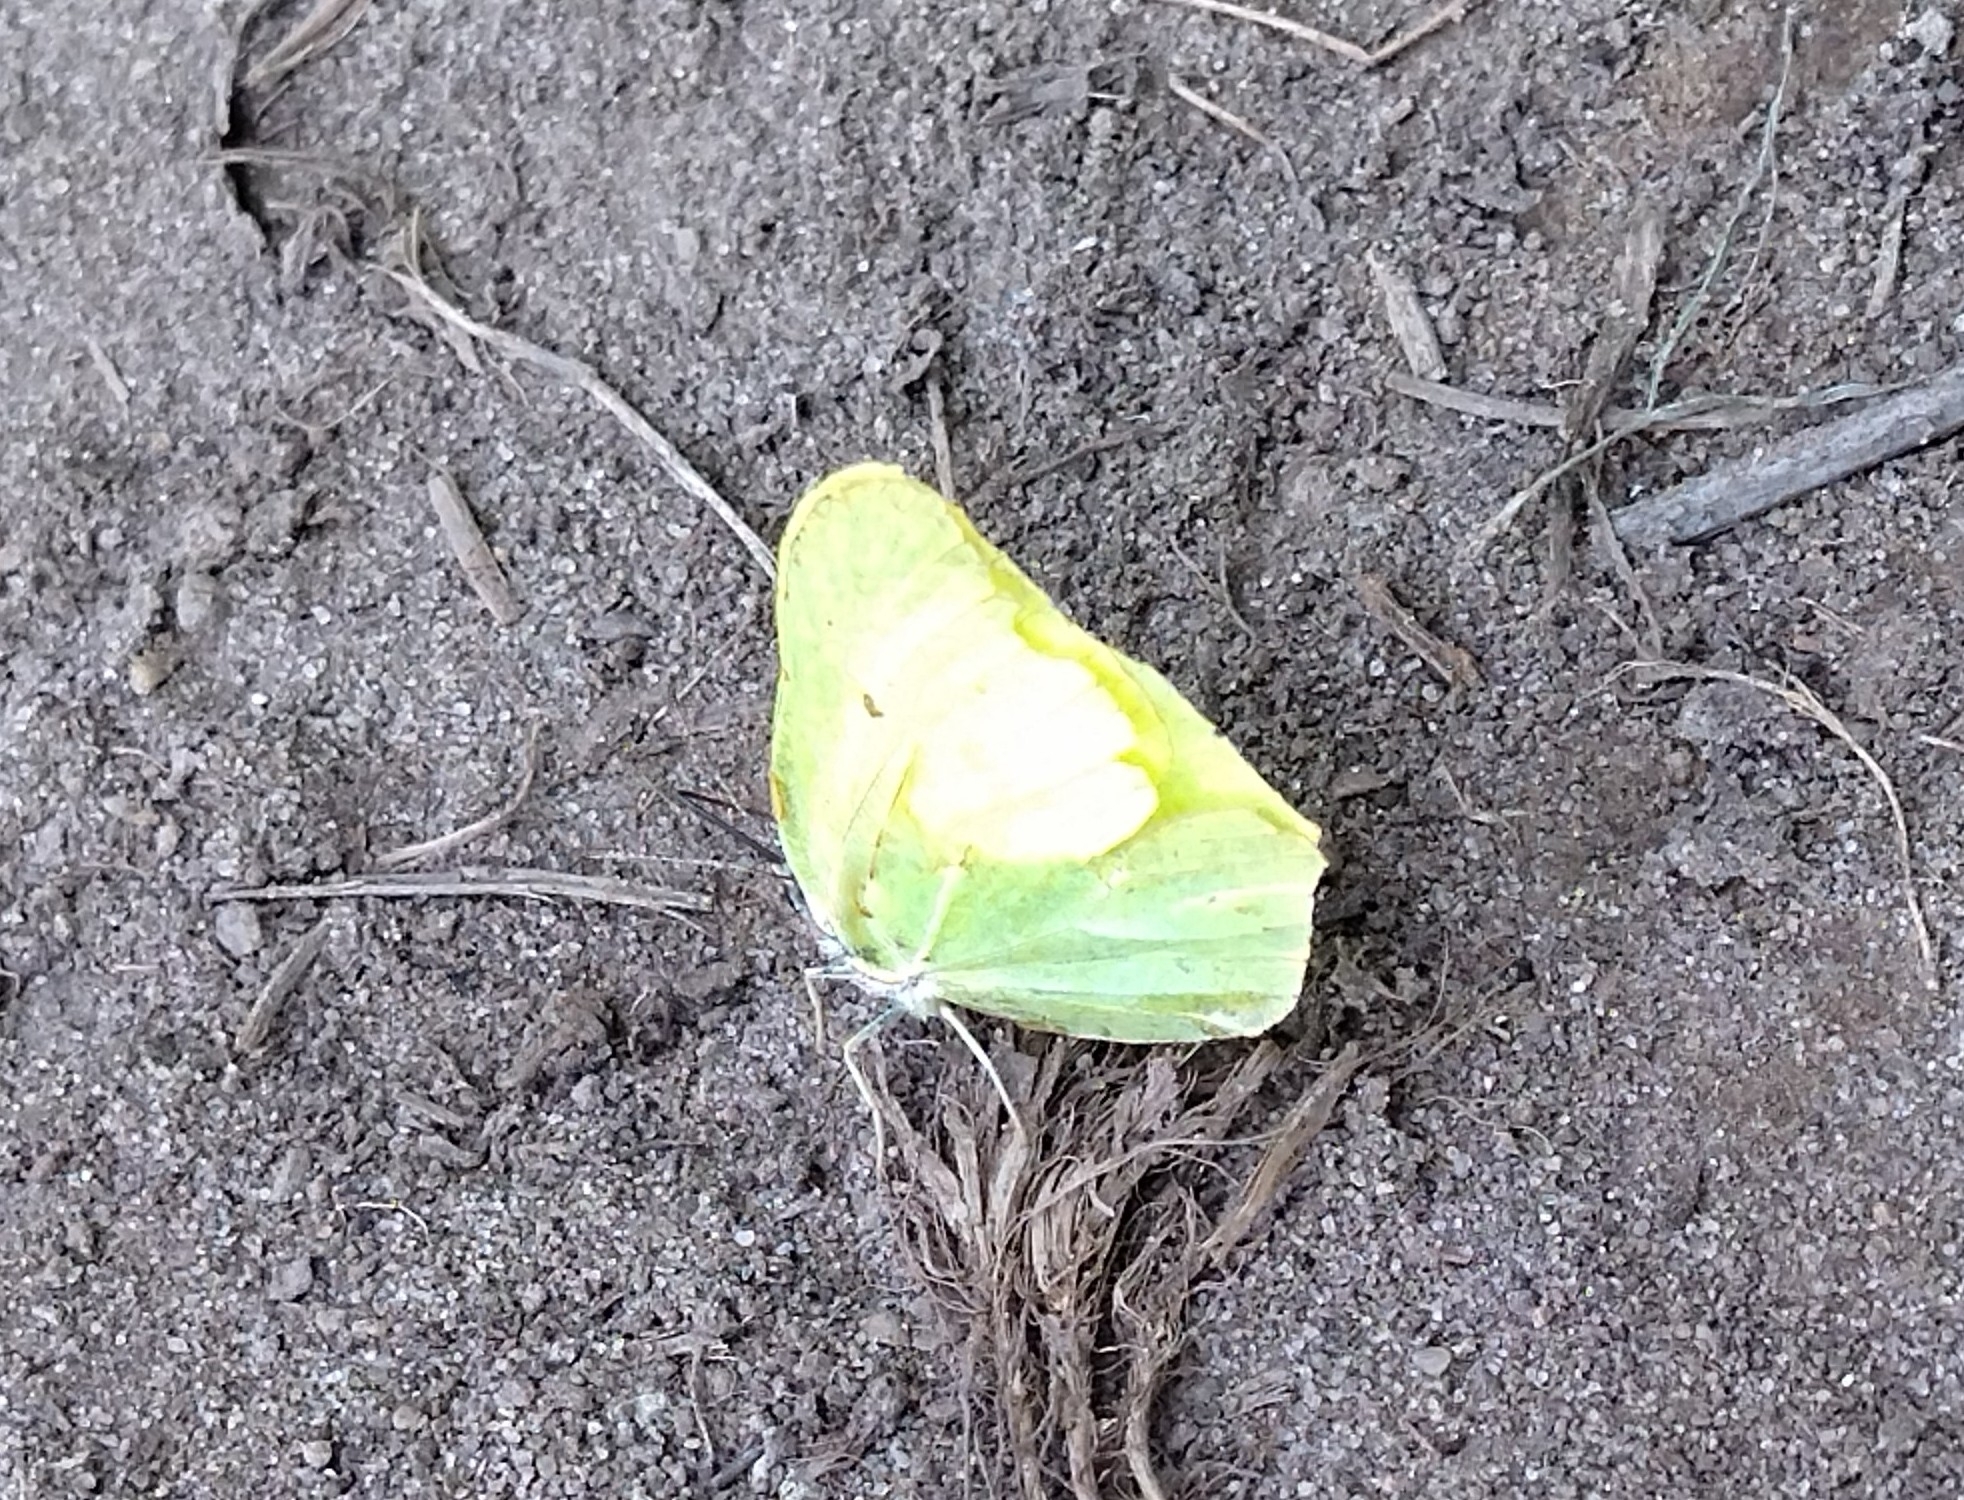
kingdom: Animalia
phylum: Arthropoda
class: Insecta
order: Lepidoptera
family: Pieridae
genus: Gonepteryx
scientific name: Gonepteryx rhamni
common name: Brimstone
